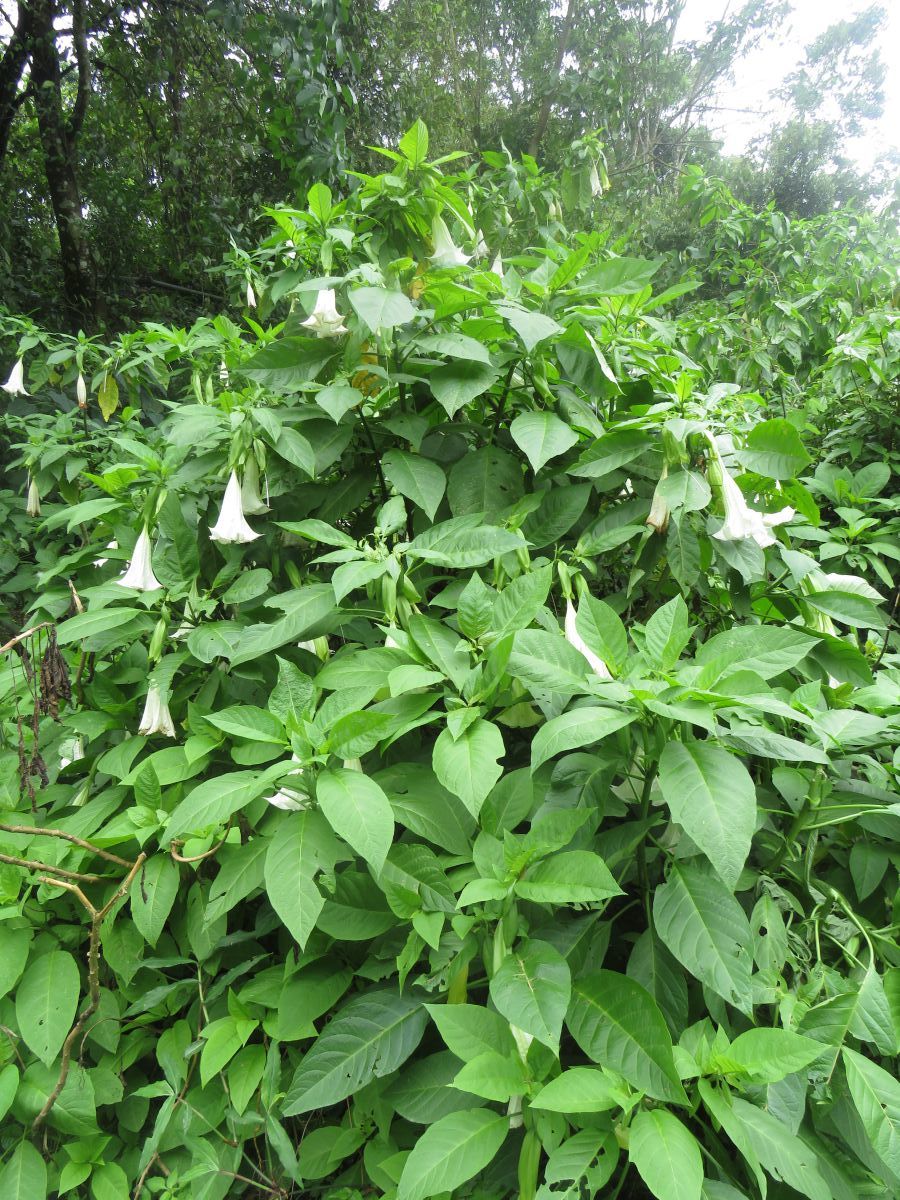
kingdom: Plantae
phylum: Tracheophyta
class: Magnoliopsida
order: Solanales
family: Solanaceae
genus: Brugmansia
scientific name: Brugmansia suaveolens
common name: Angel's tears
